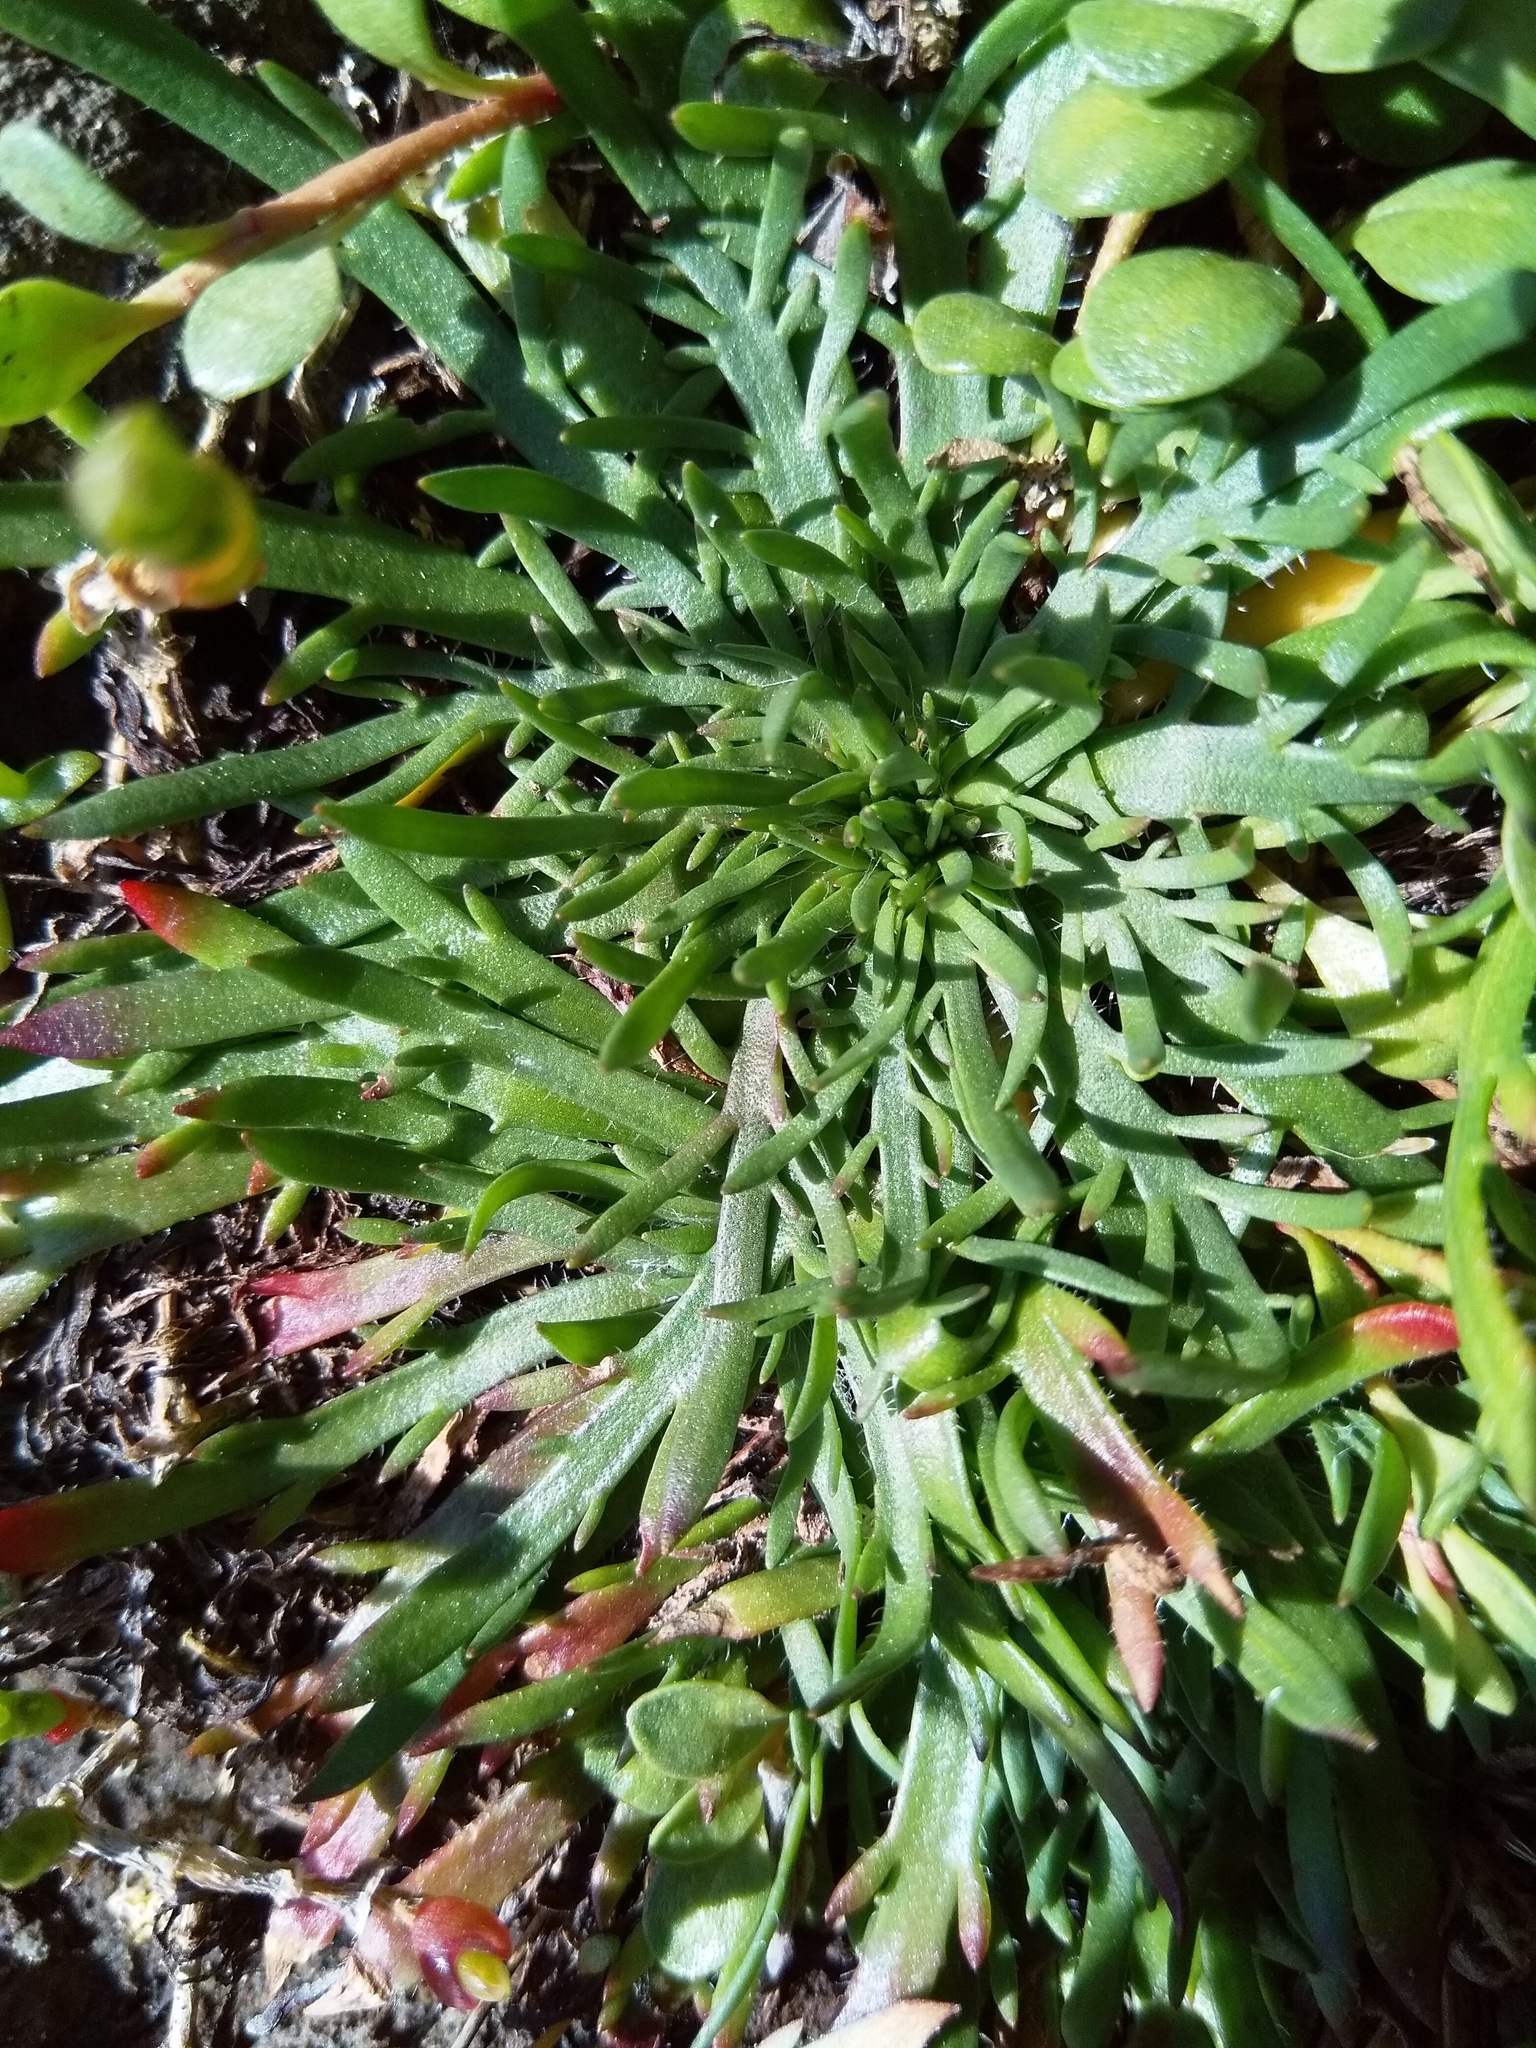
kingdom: Plantae
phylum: Tracheophyta
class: Magnoliopsida
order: Lamiales
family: Plantaginaceae
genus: Plantago
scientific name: Plantago coronopus
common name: Buck's-horn plantain
